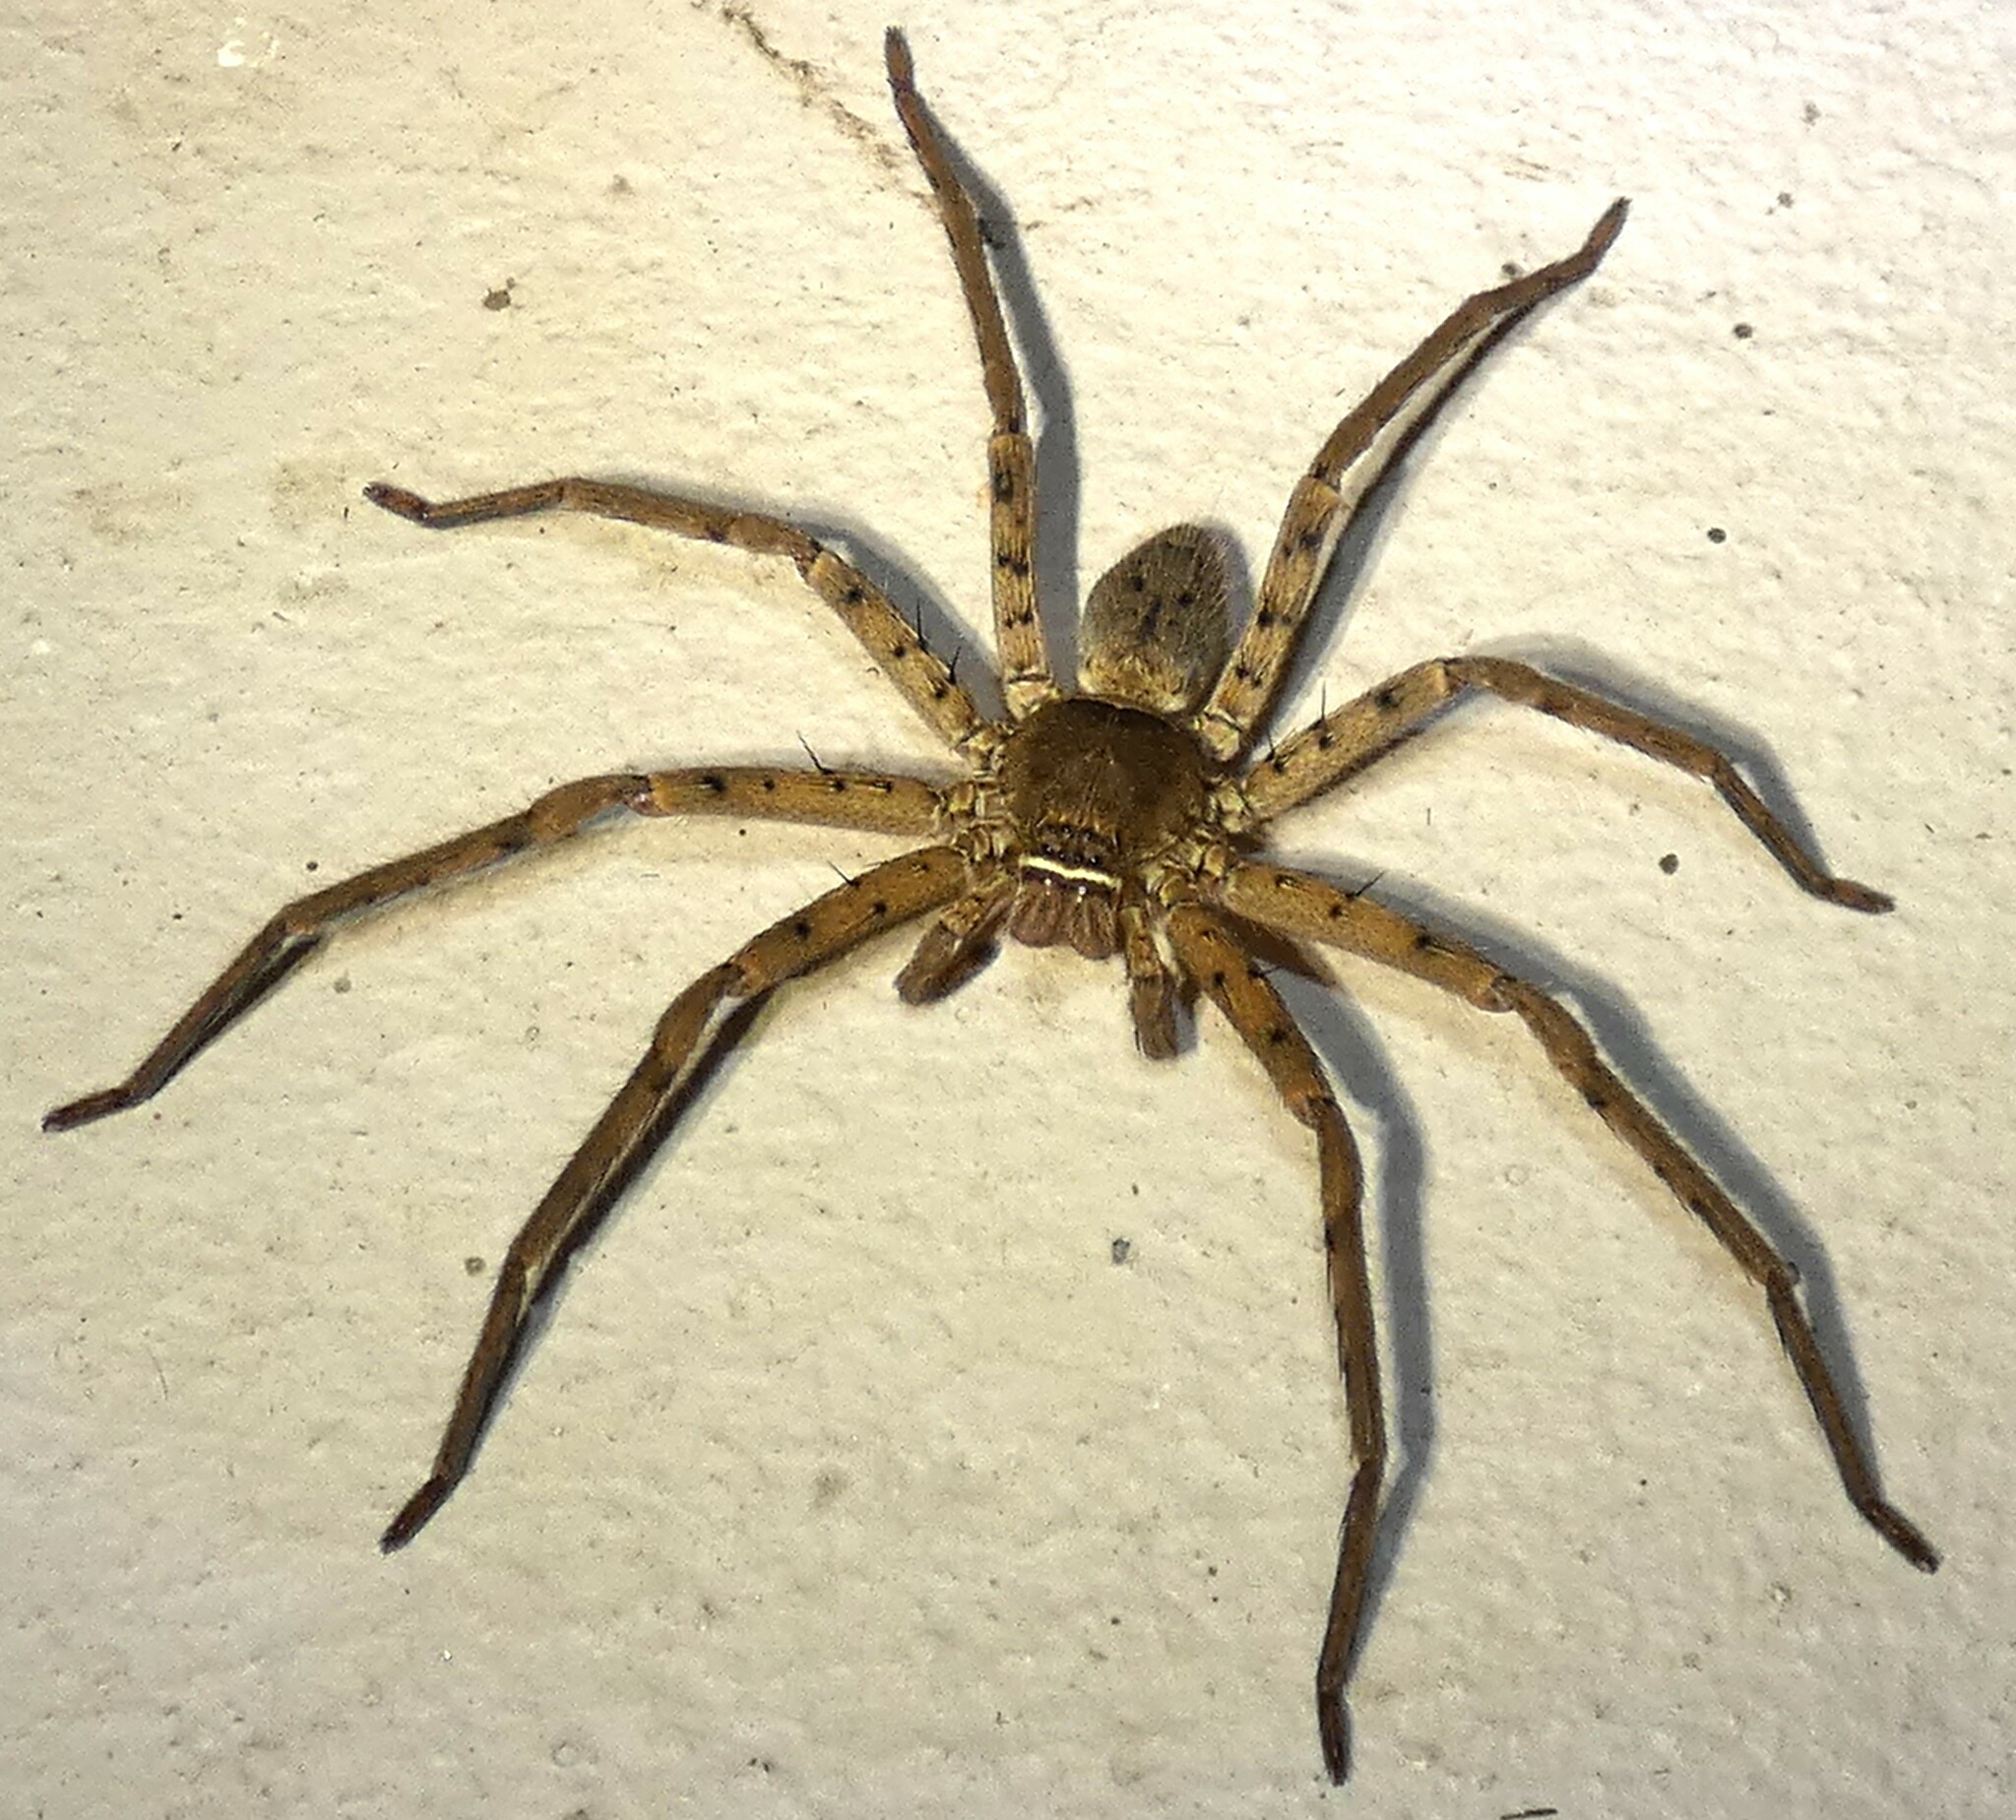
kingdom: Animalia
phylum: Arthropoda
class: Arachnida
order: Araneae
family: Sparassidae
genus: Heteropoda
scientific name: Heteropoda venatoria
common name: Huntsman spider
